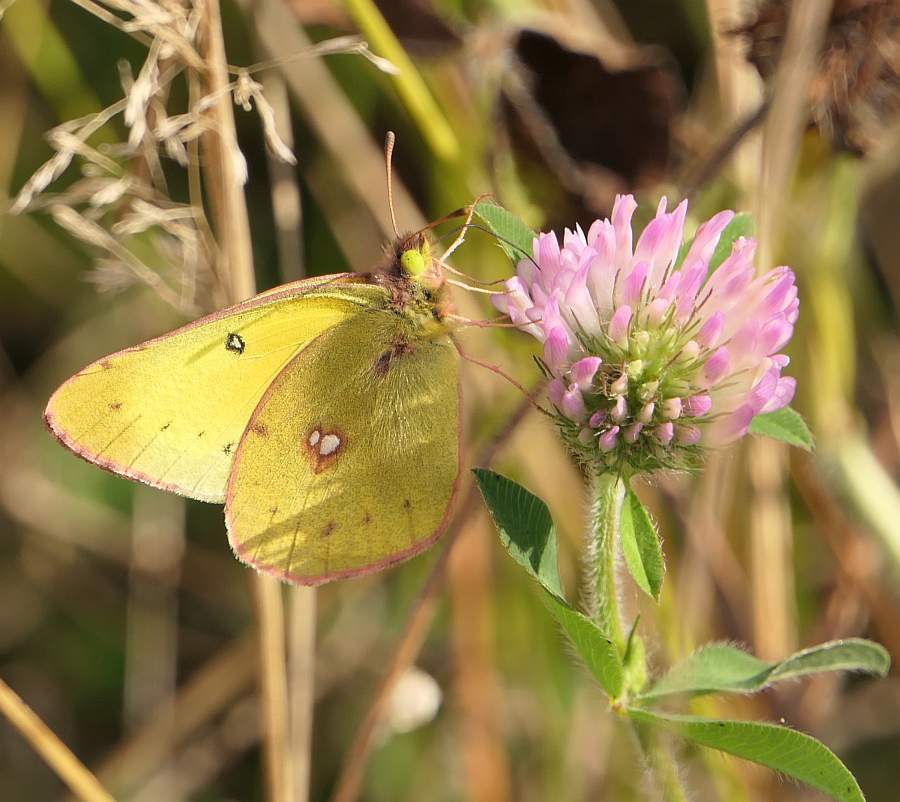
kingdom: Animalia
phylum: Arthropoda
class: Insecta
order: Lepidoptera
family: Pieridae
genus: Colias
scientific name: Colias philodice
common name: Clouded sulphur
